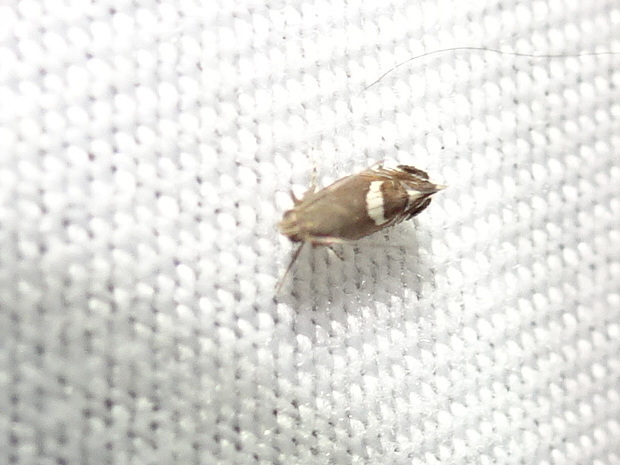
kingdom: Animalia
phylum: Arthropoda
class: Insecta
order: Lepidoptera
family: Glyphipterigidae
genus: Glyphipterix
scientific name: Glyphipterix Diploschizia impigritella
